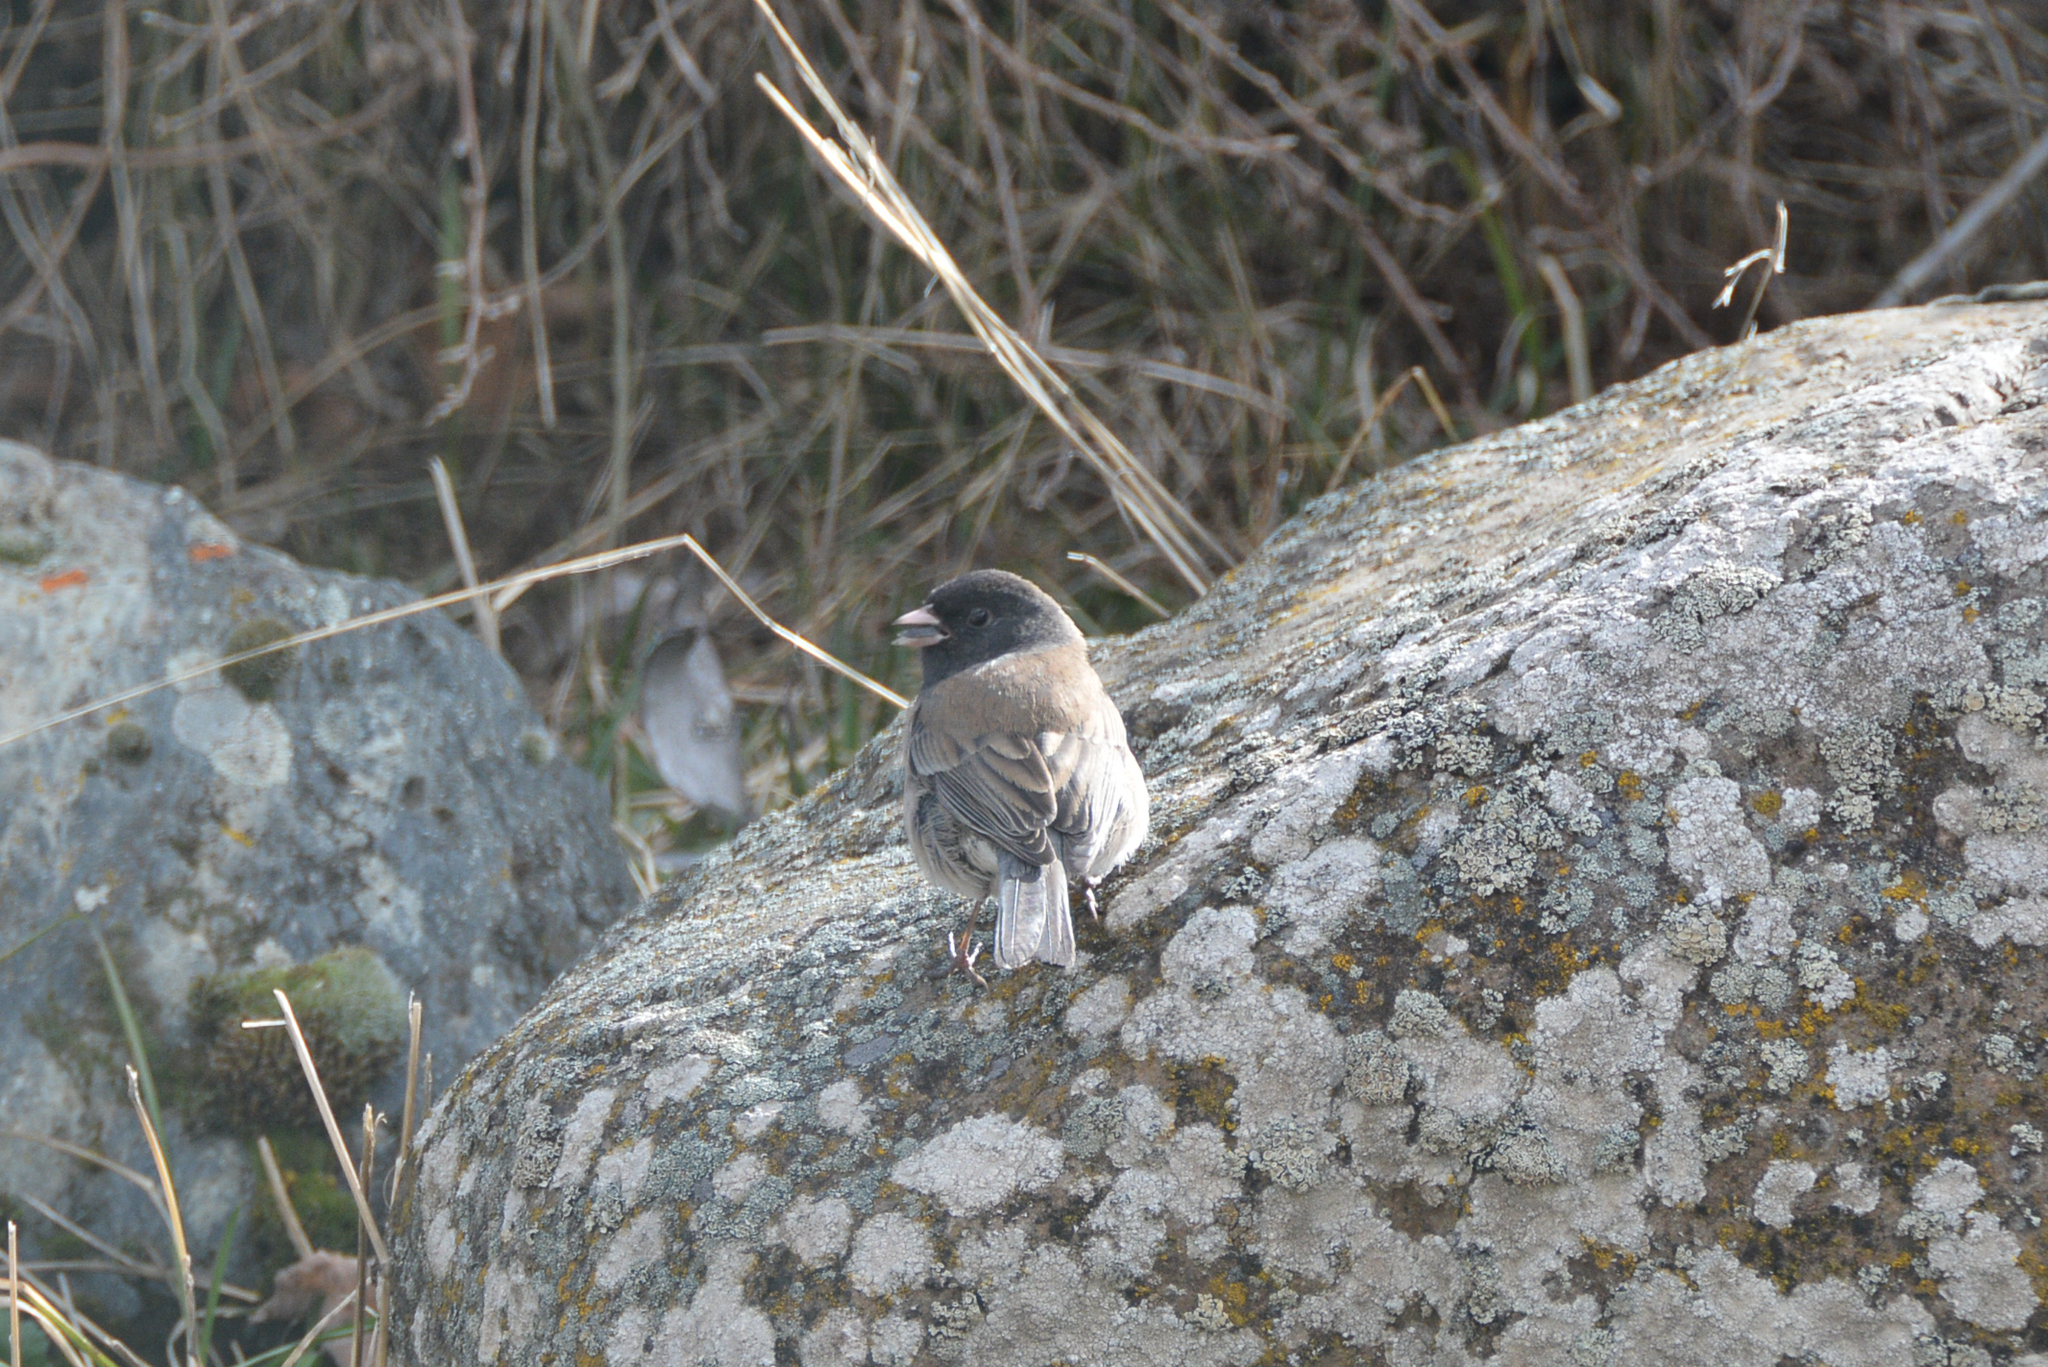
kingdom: Animalia
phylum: Chordata
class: Aves
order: Passeriformes
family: Passerellidae
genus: Junco
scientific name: Junco hyemalis
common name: Dark-eyed junco
